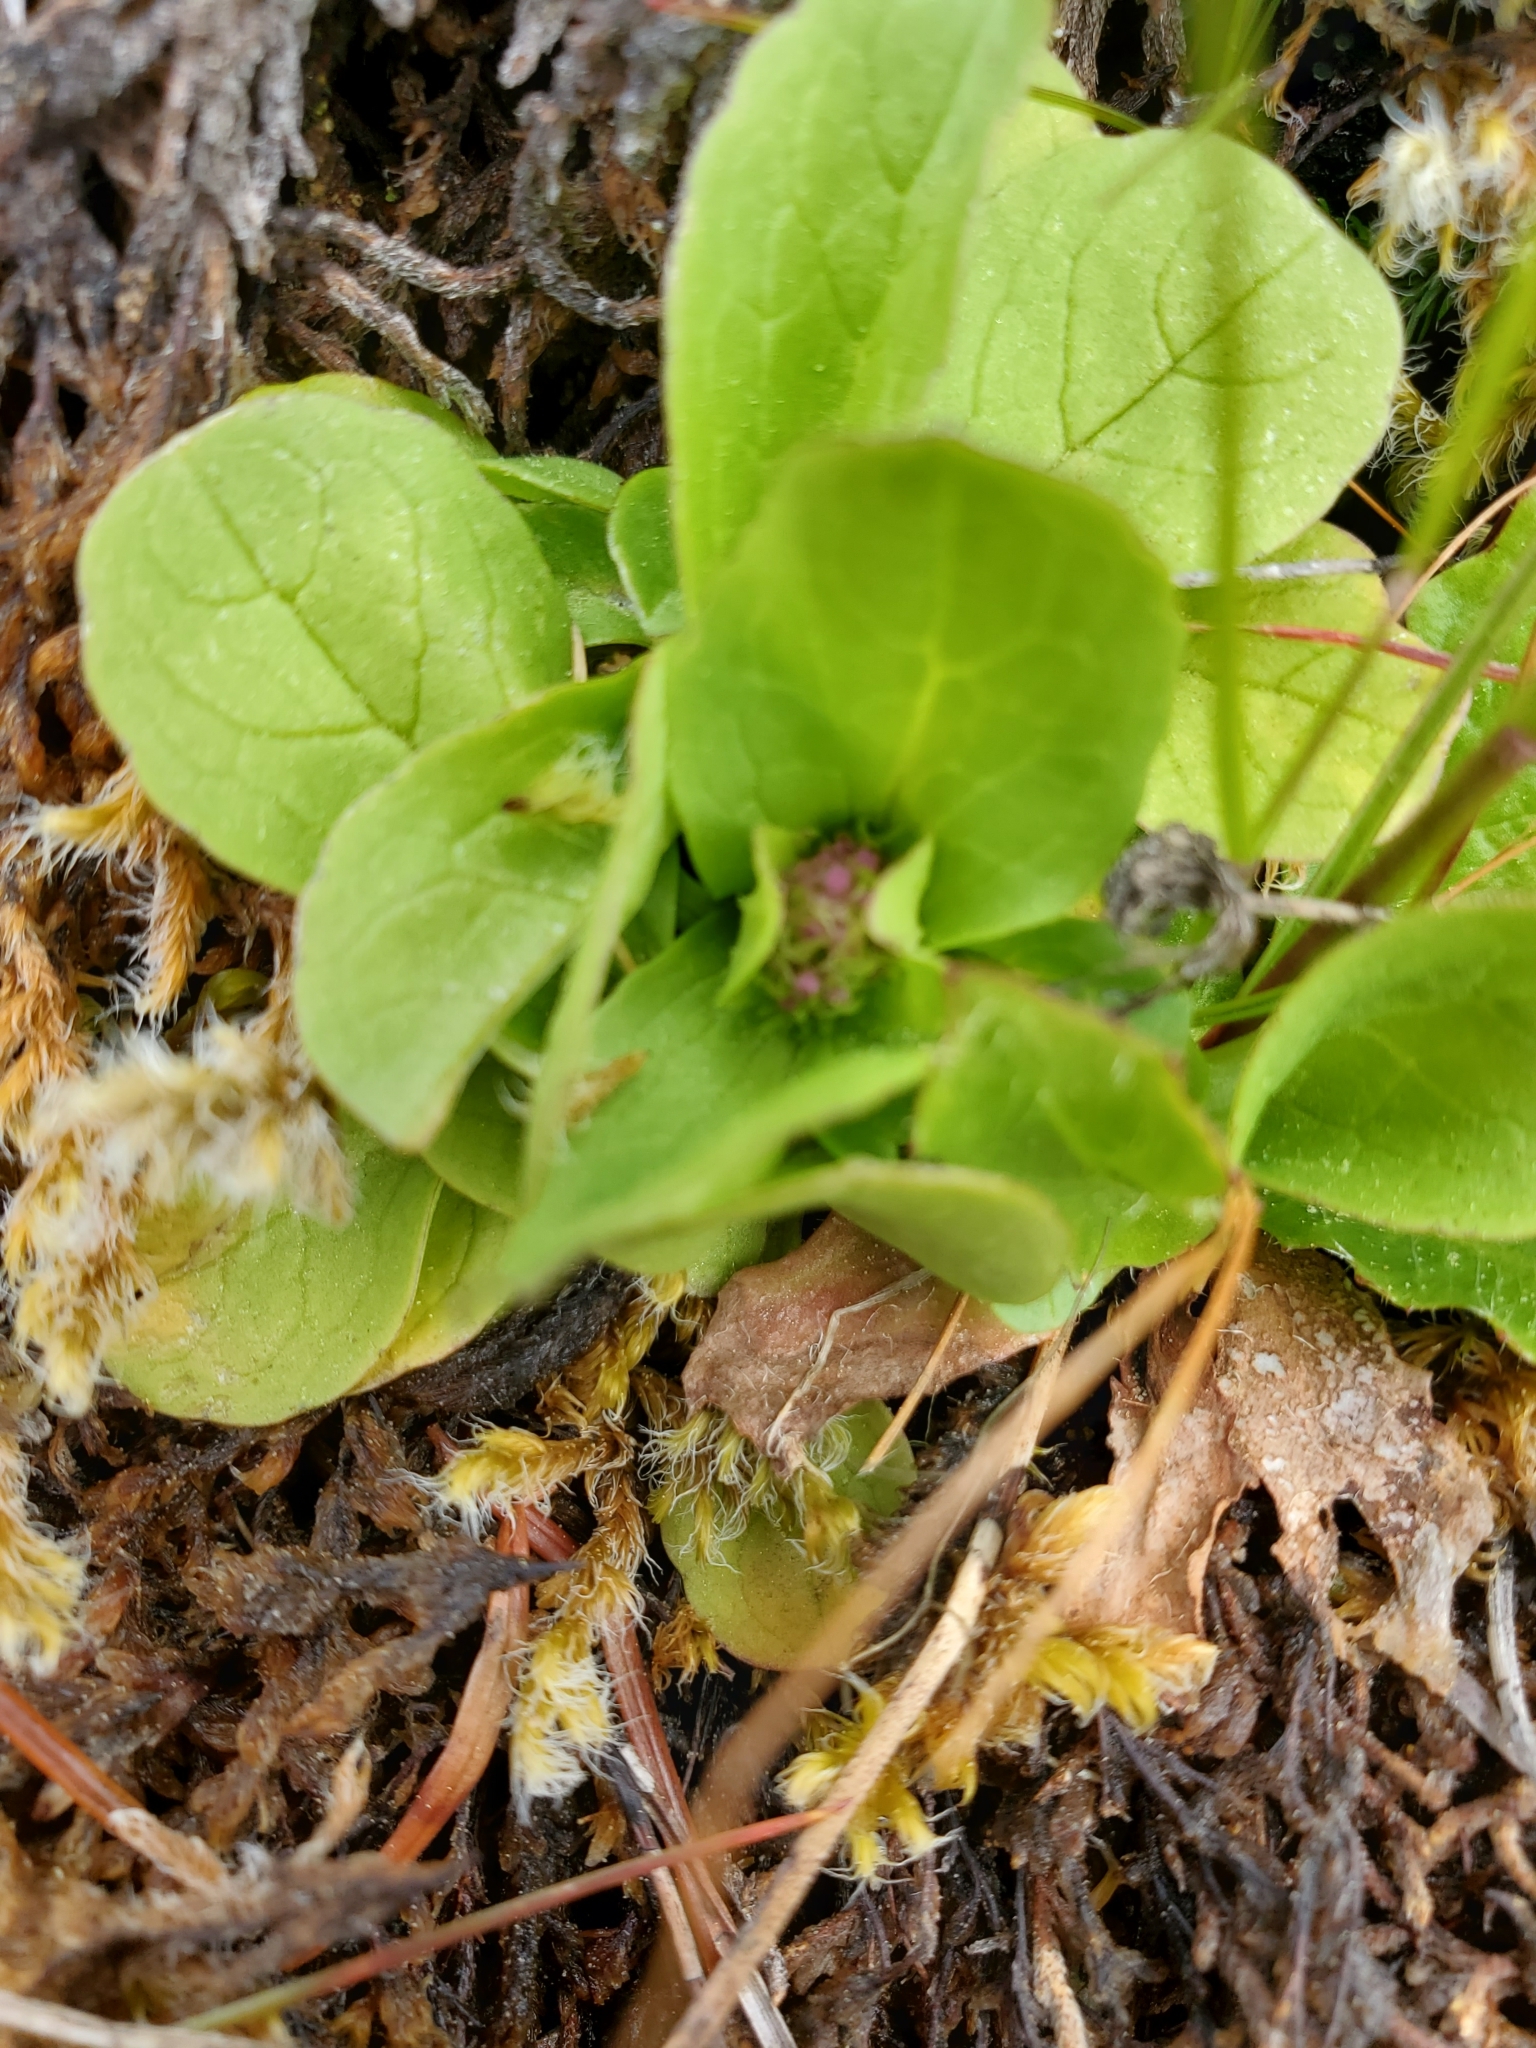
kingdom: Plantae
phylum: Tracheophyta
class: Magnoliopsida
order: Dipsacales
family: Caprifoliaceae
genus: Plectritis
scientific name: Plectritis congesta
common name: Pink plectritis
